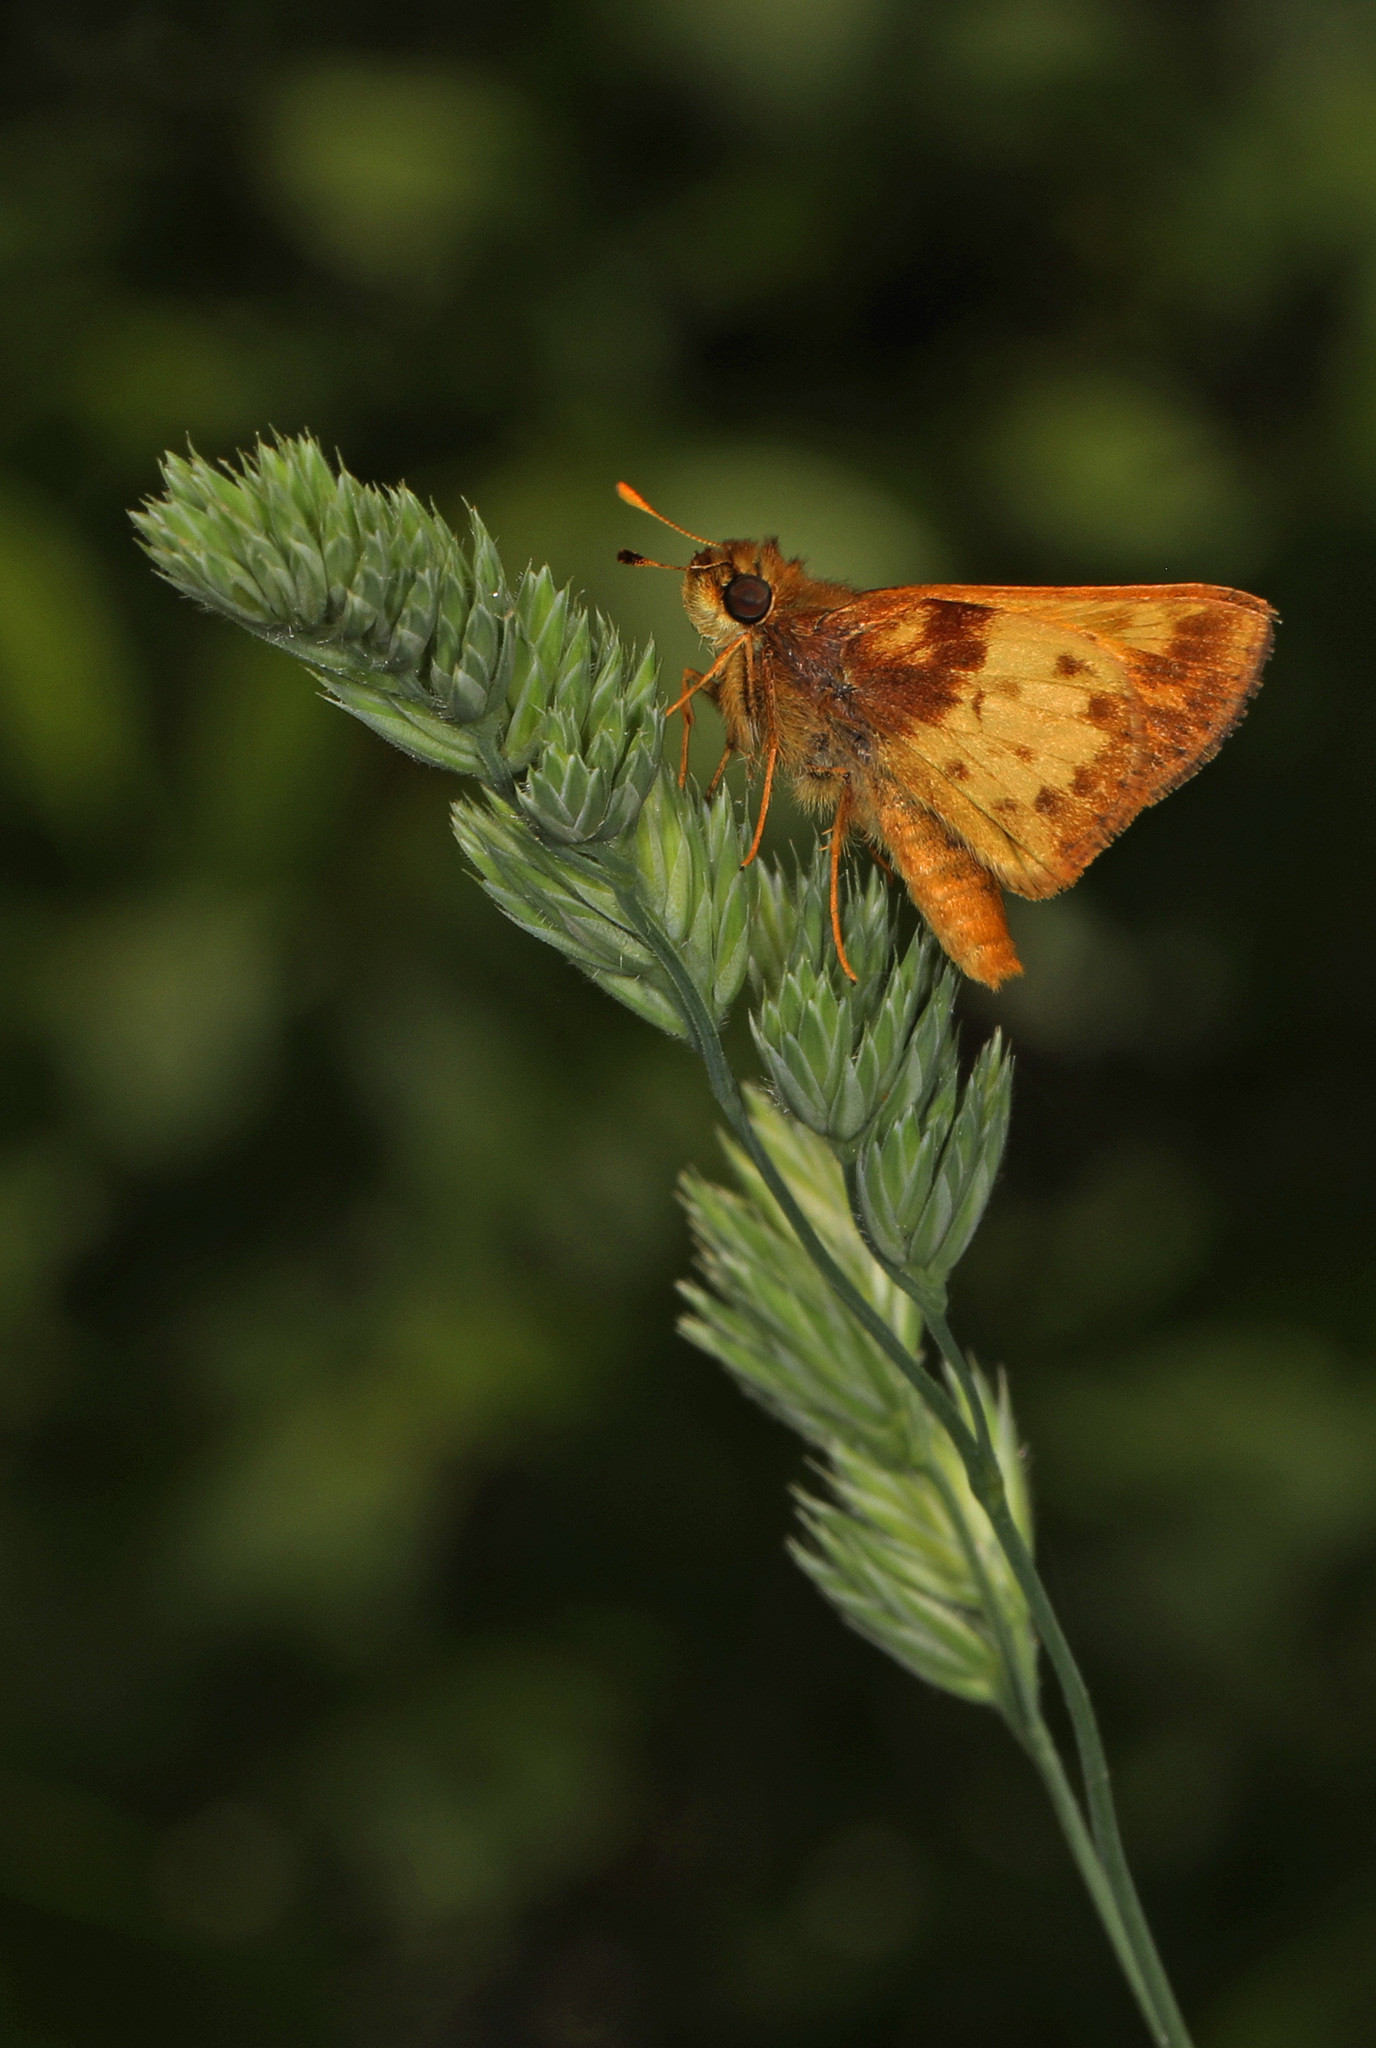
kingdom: Animalia
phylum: Arthropoda
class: Insecta
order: Lepidoptera
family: Hesperiidae
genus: Lon
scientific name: Lon zabulon
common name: Zabulon skipper
